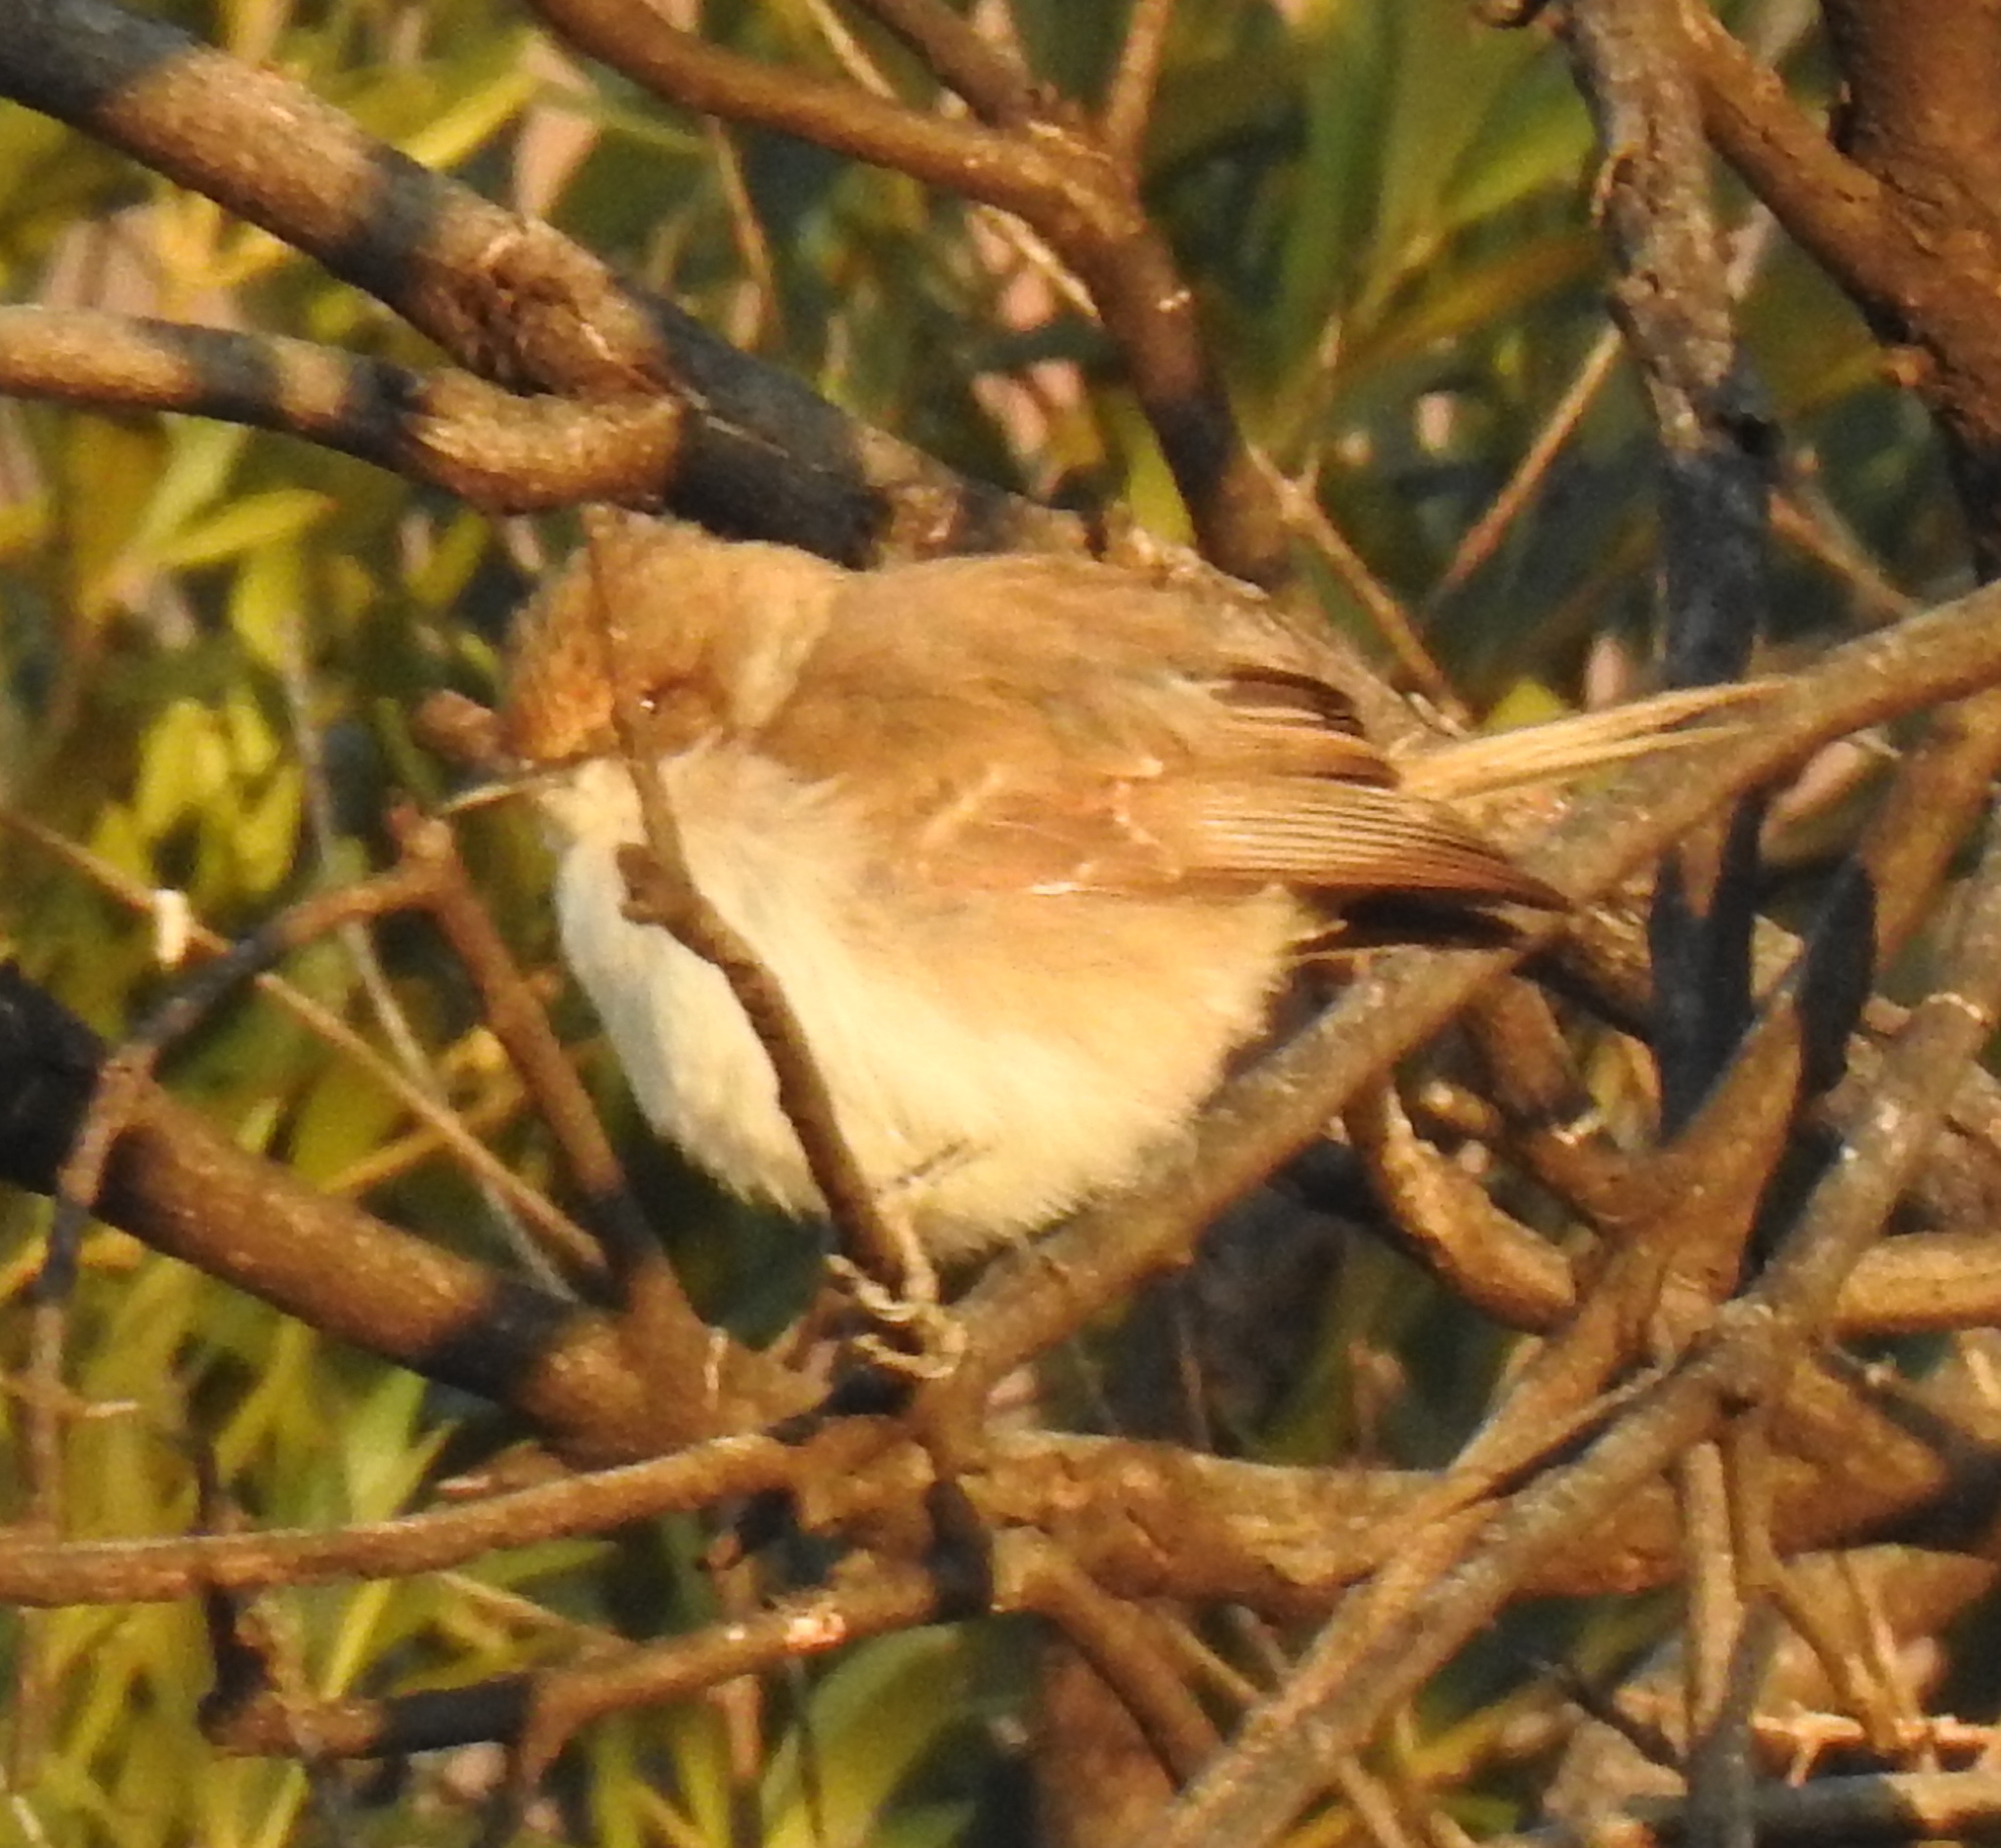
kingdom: Animalia
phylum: Chordata
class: Aves
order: Passeriformes
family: Muscicapidae
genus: Bradornis
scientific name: Bradornis mariquensis
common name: Marico flycatcher
